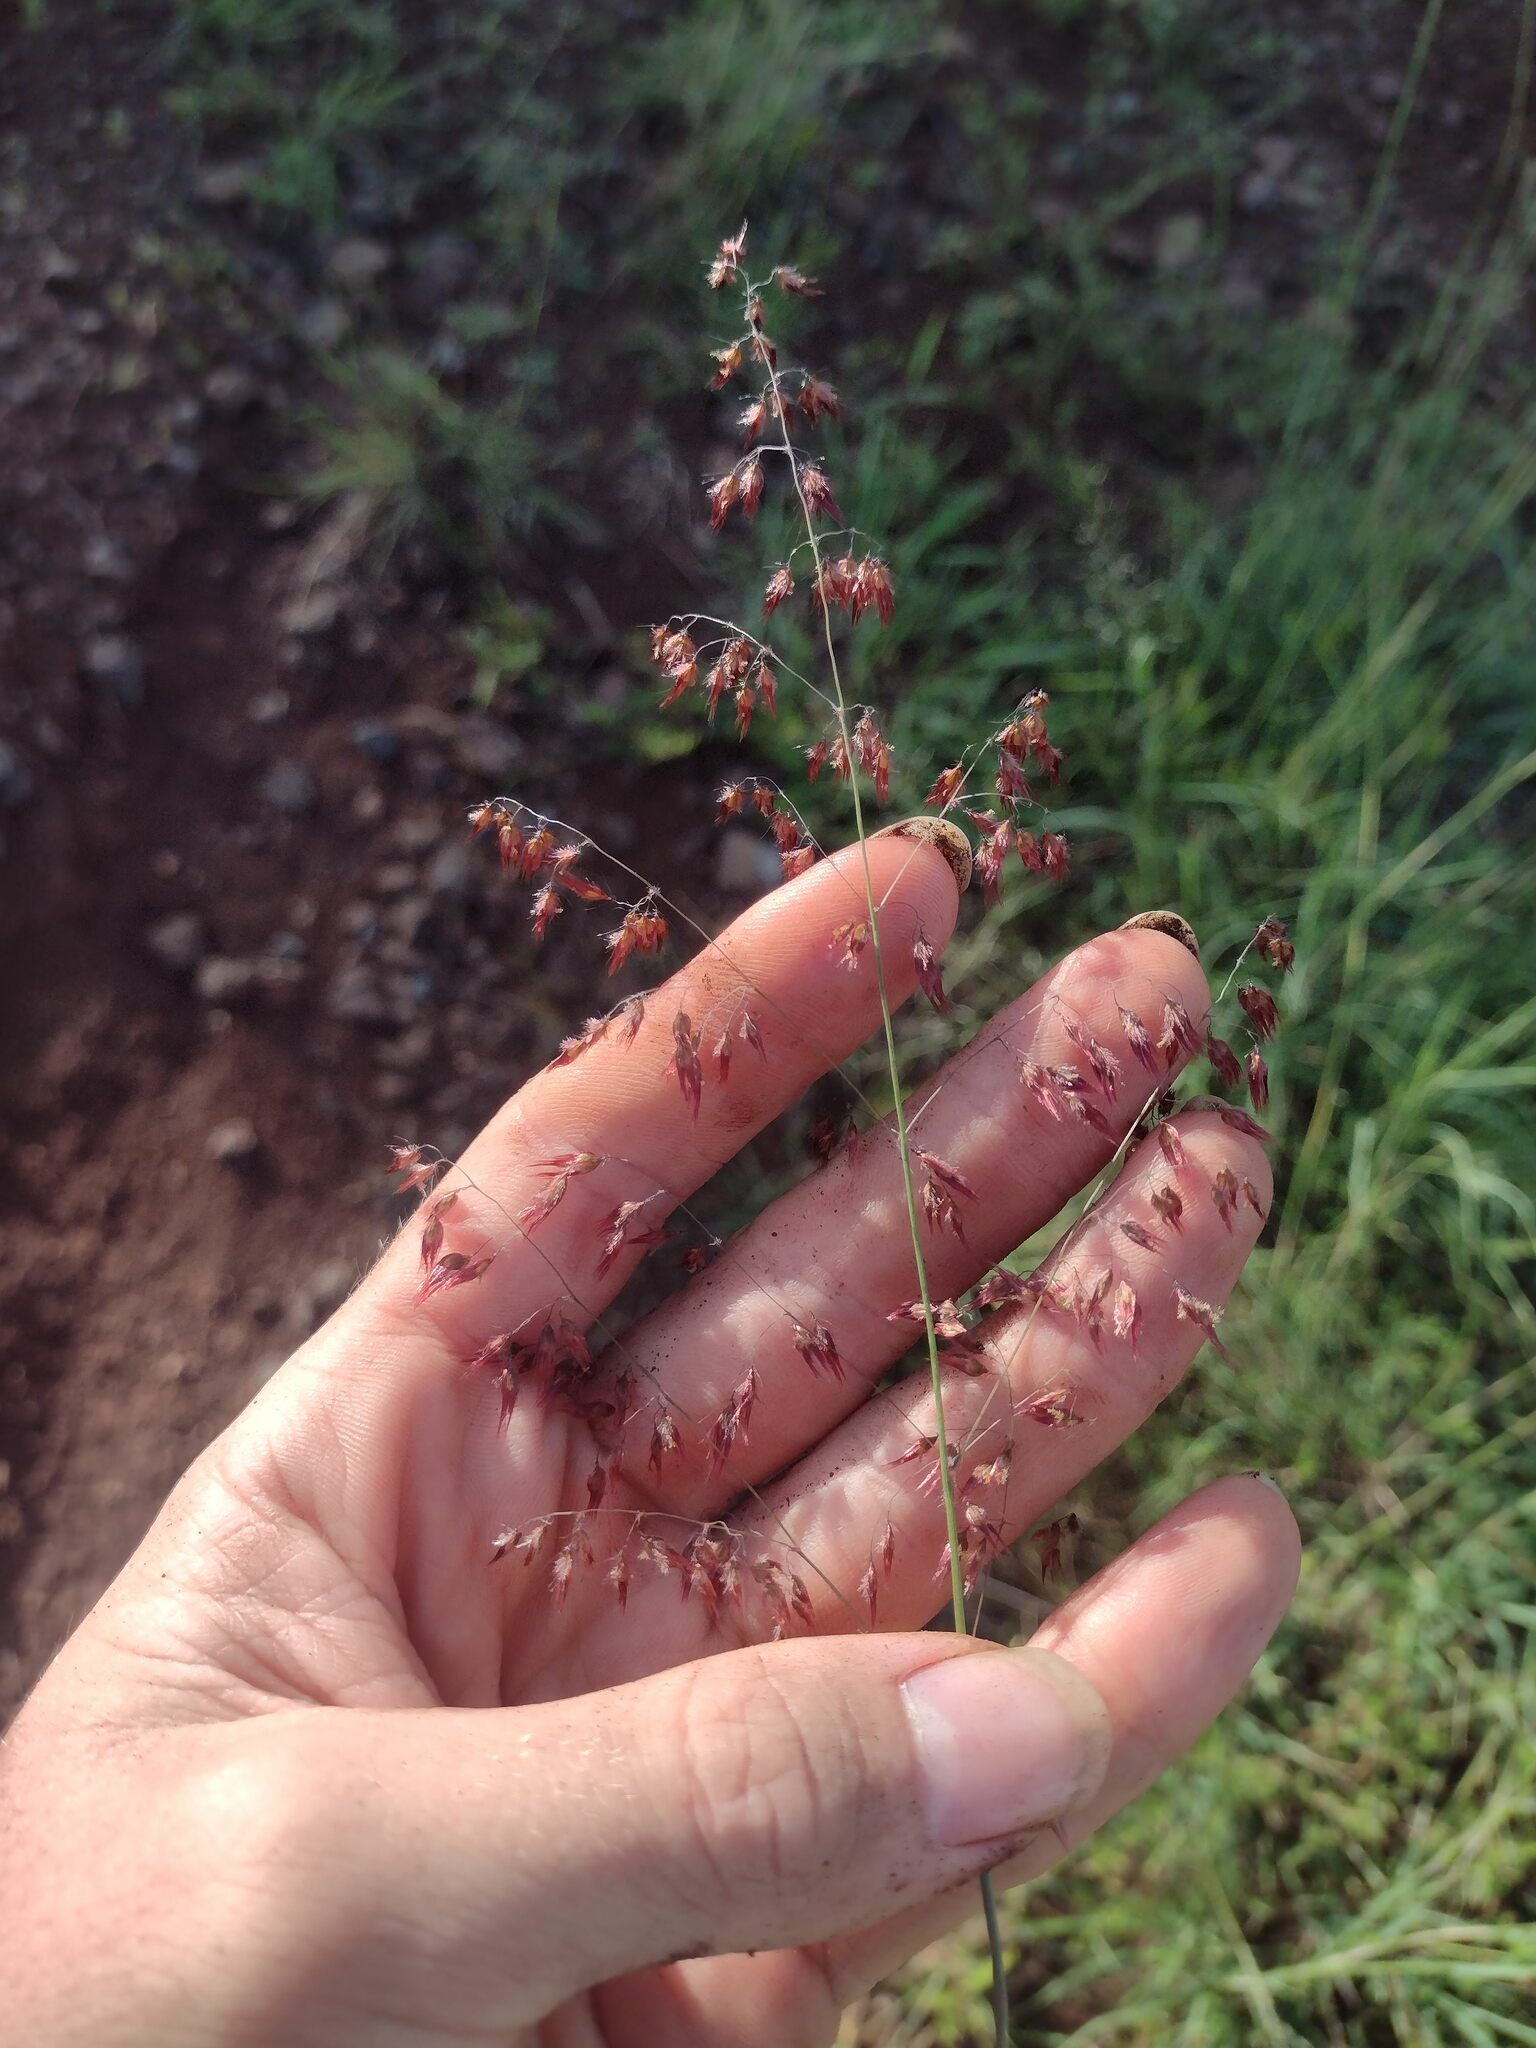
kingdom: Plantae
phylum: Tracheophyta
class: Liliopsida
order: Poales
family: Poaceae
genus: Melinis
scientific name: Melinis repens
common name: Rose natal grass
